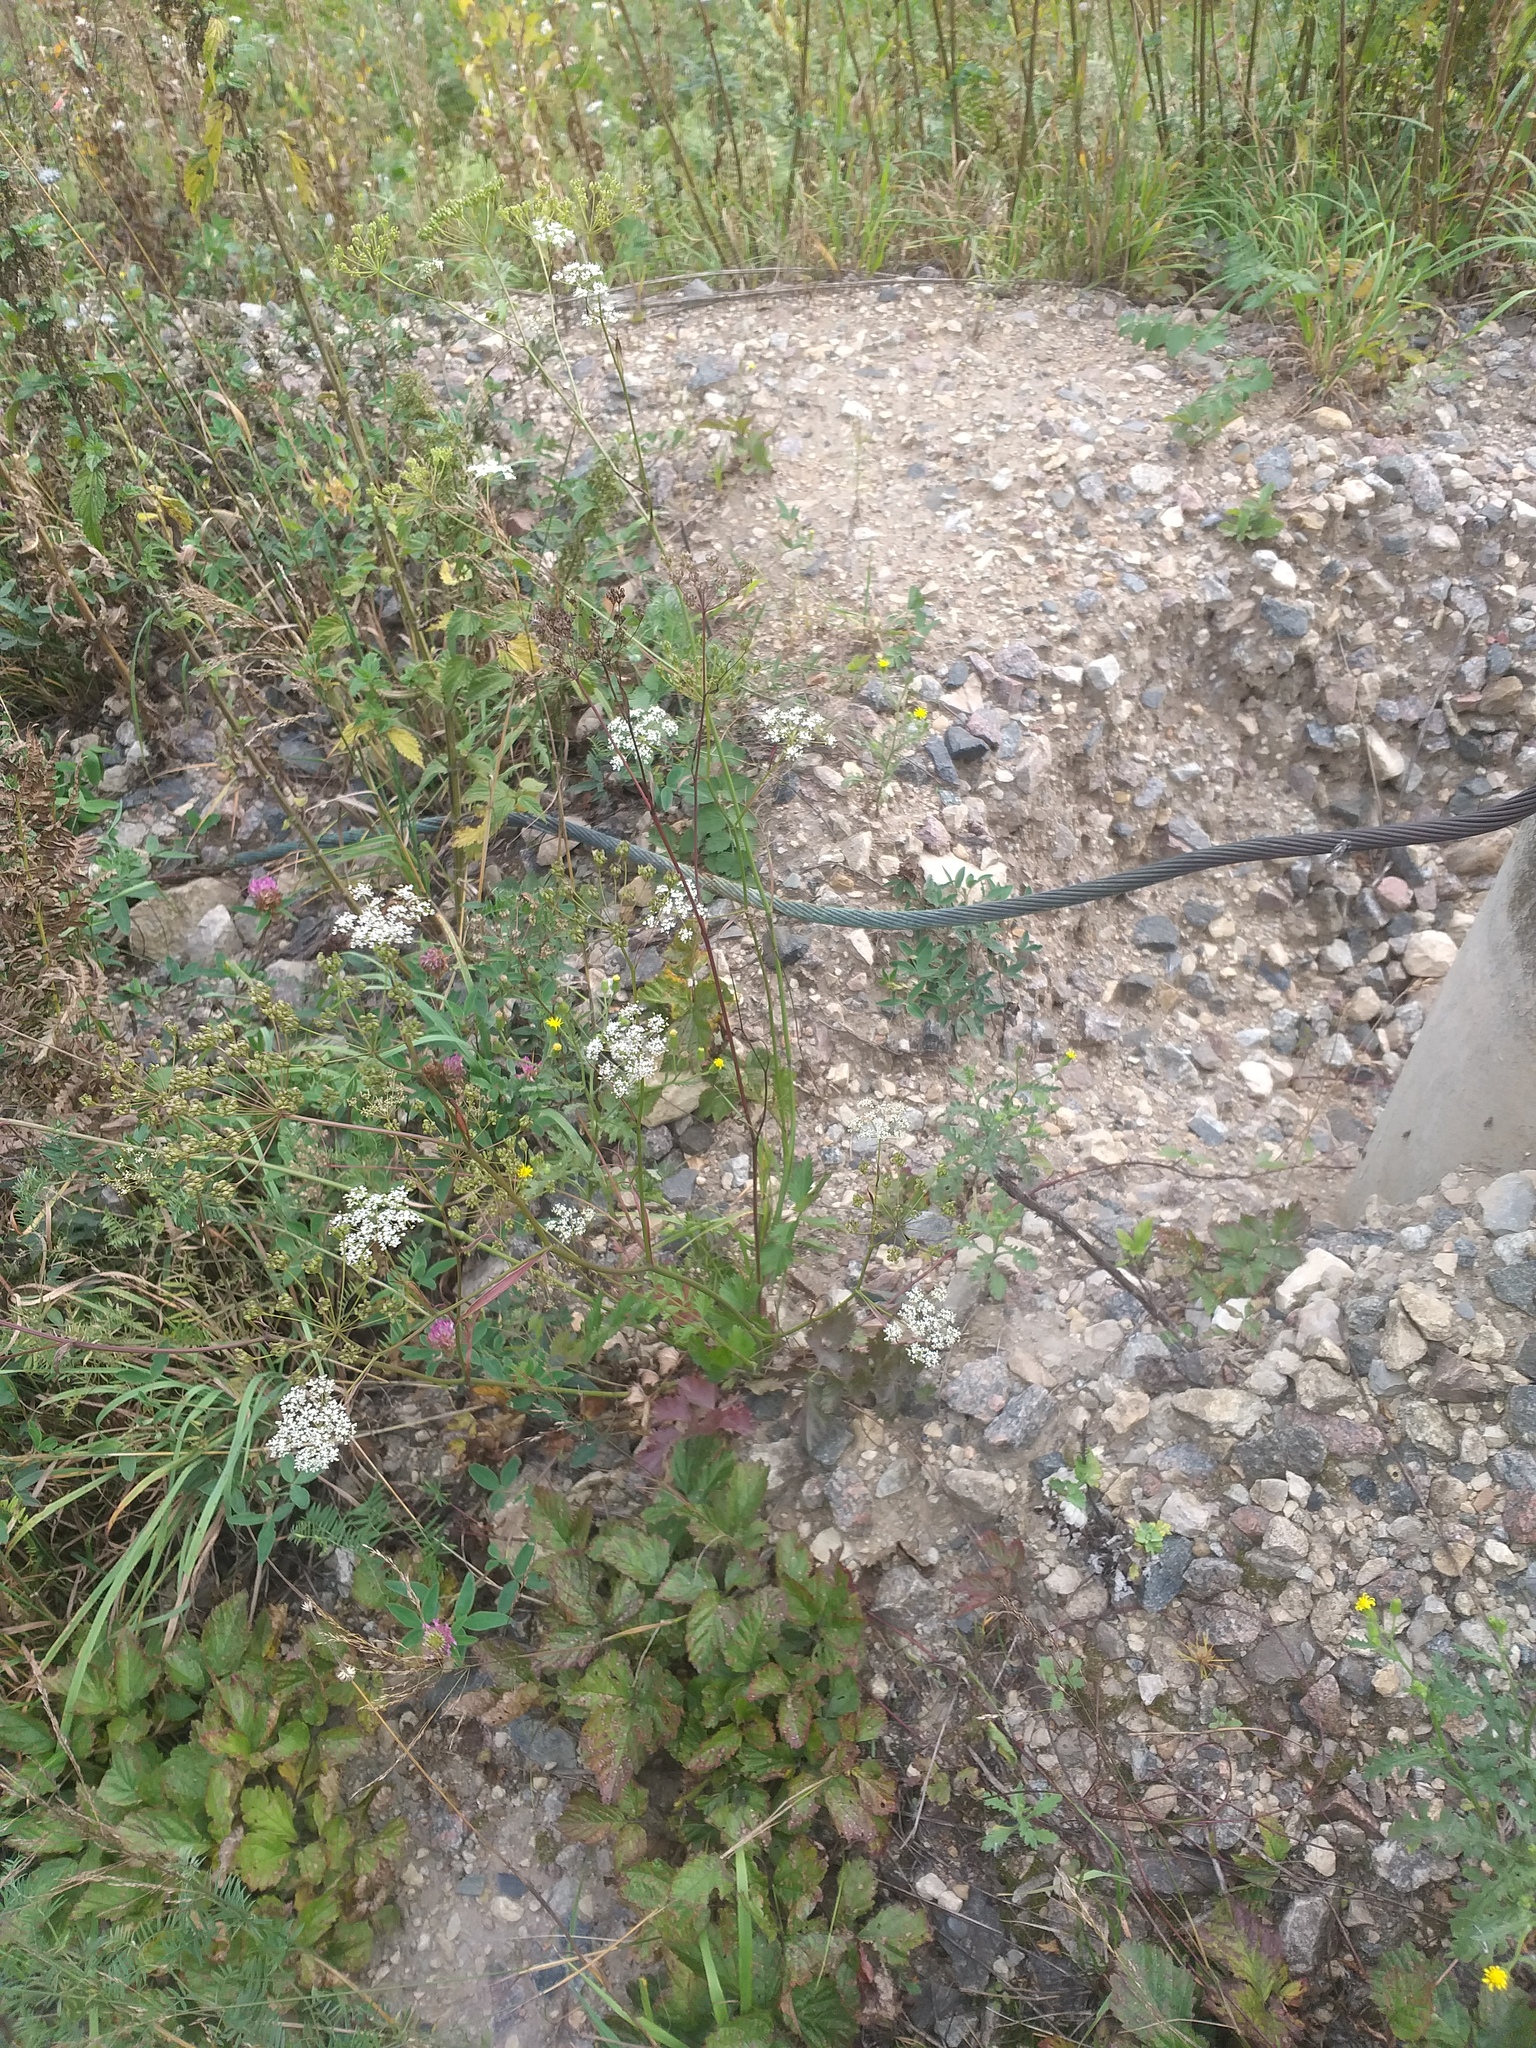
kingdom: Plantae
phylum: Tracheophyta
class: Magnoliopsida
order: Apiales
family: Apiaceae
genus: Pimpinella
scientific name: Pimpinella saxifraga
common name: Burnet-saxifrage
